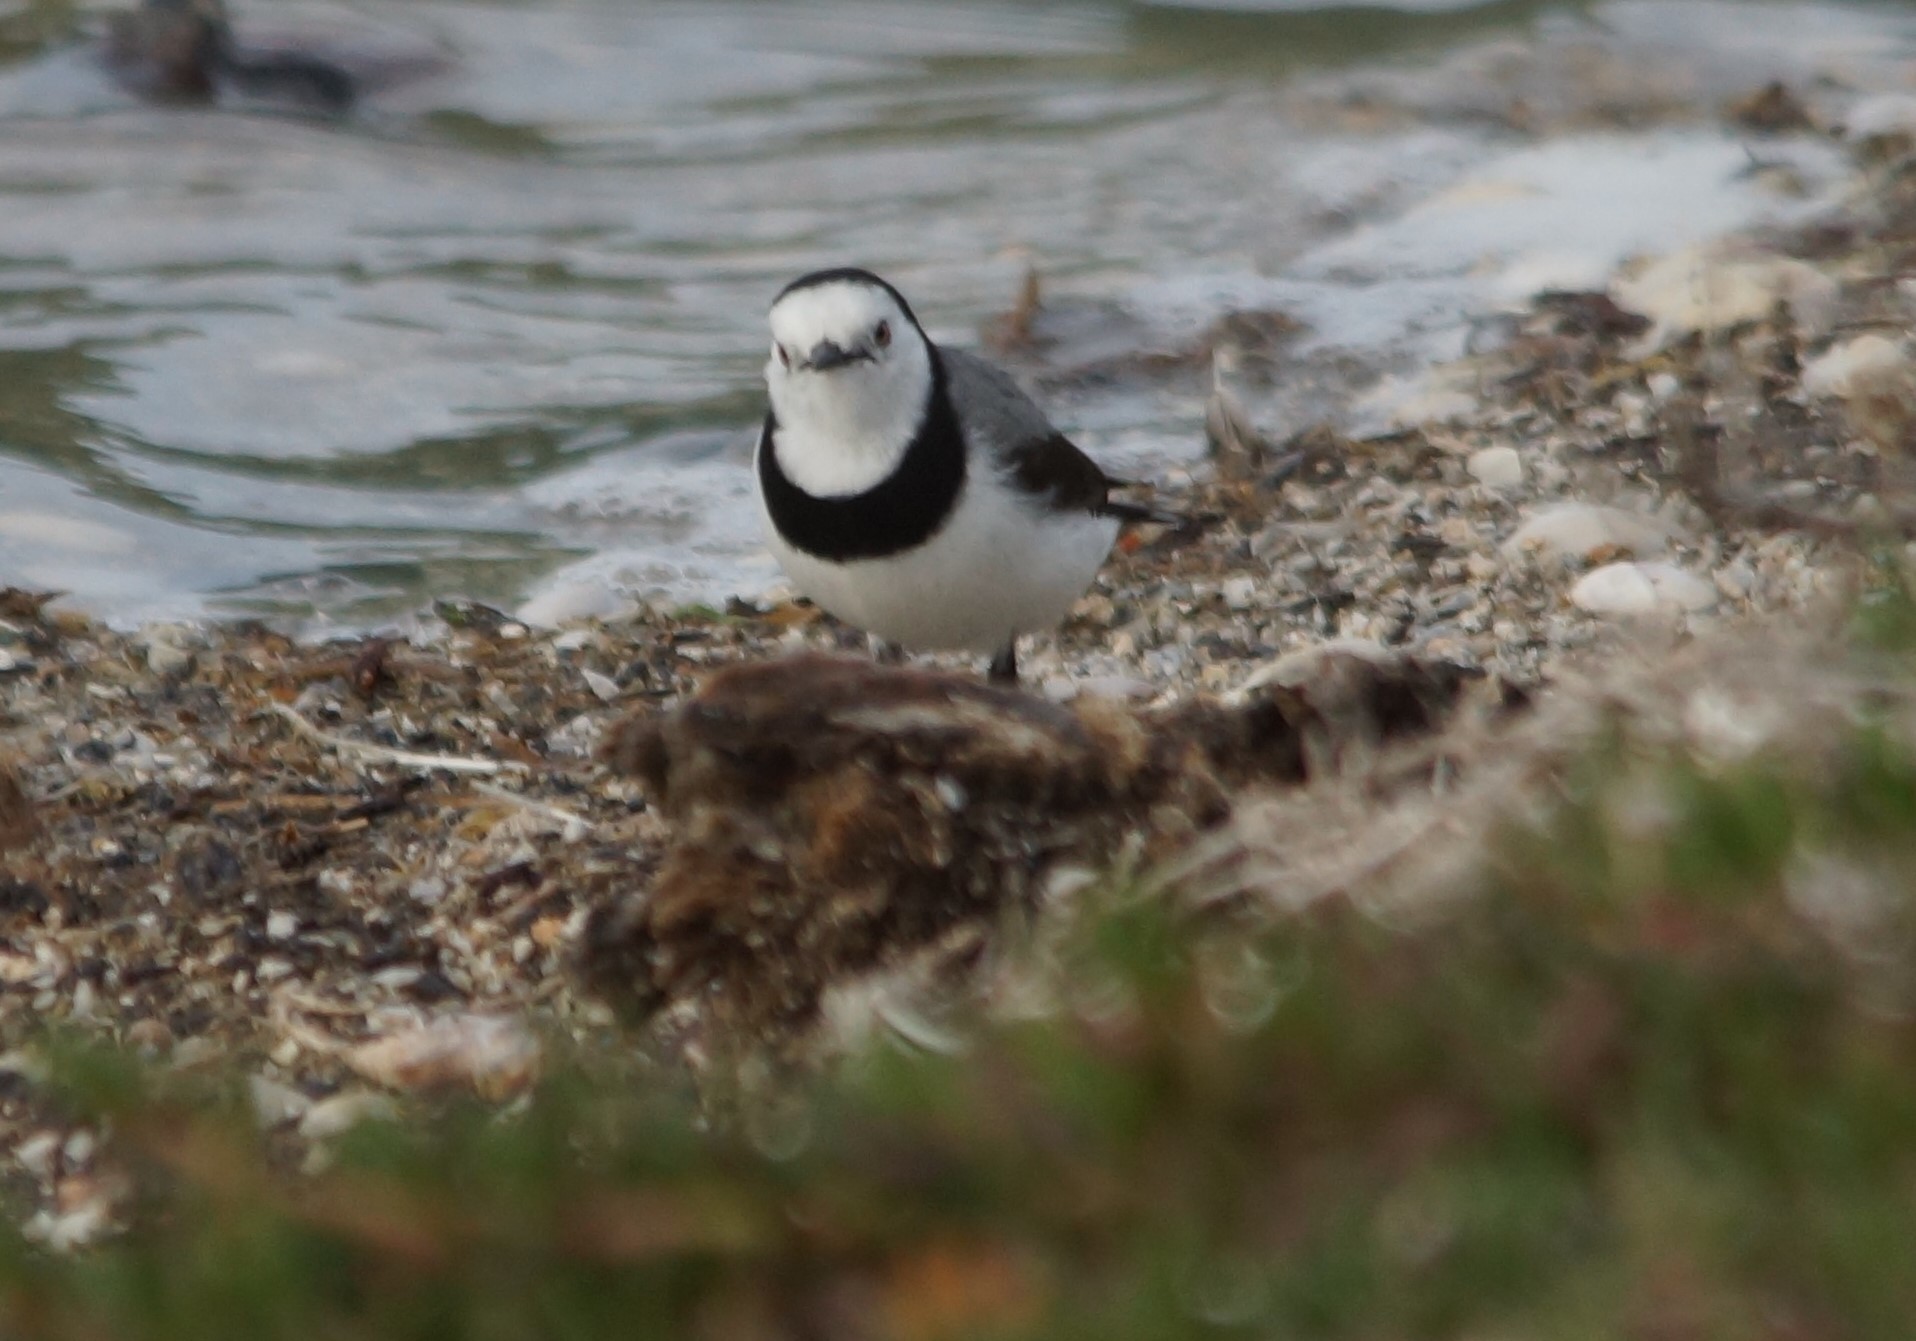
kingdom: Animalia
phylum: Chordata
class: Aves
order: Passeriformes
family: Meliphagidae
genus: Epthianura
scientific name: Epthianura albifrons
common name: White-fronted chat
